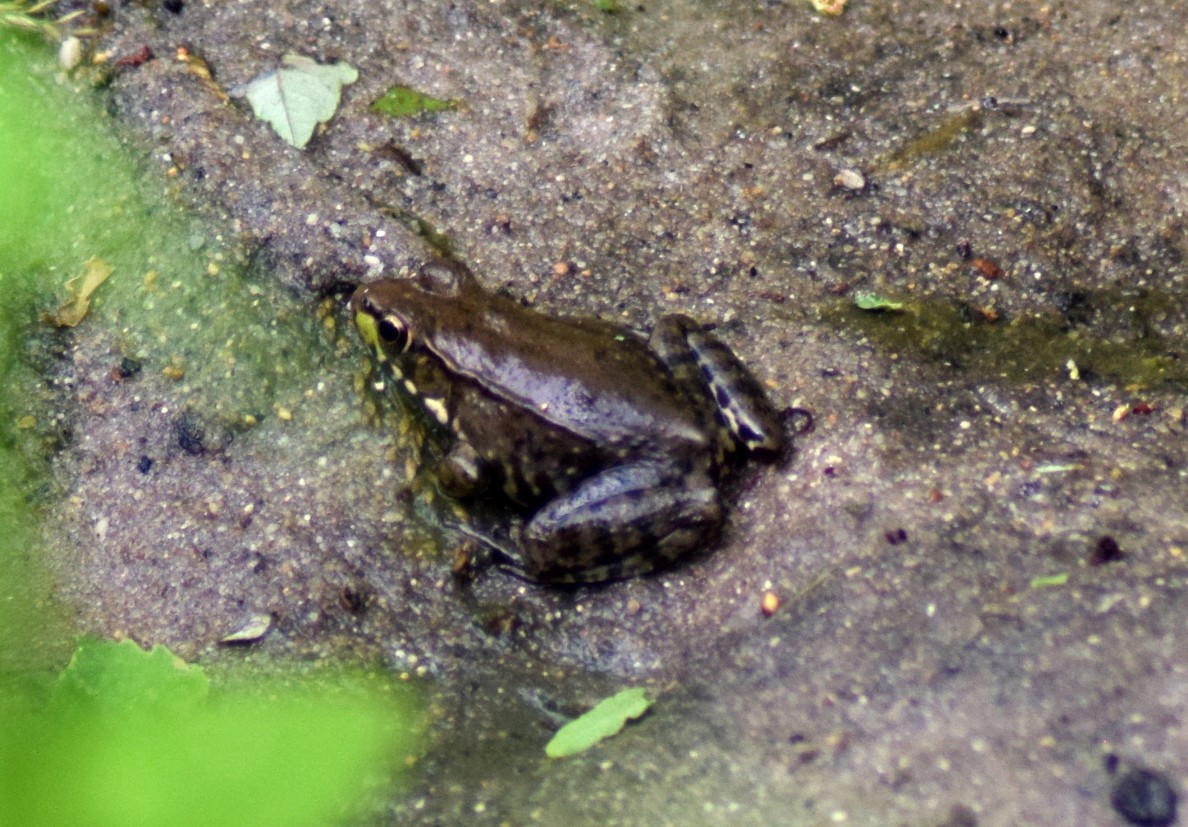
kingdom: Animalia
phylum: Chordata
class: Amphibia
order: Anura
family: Ranidae
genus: Lithobates
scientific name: Lithobates clamitans
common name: Green frog
